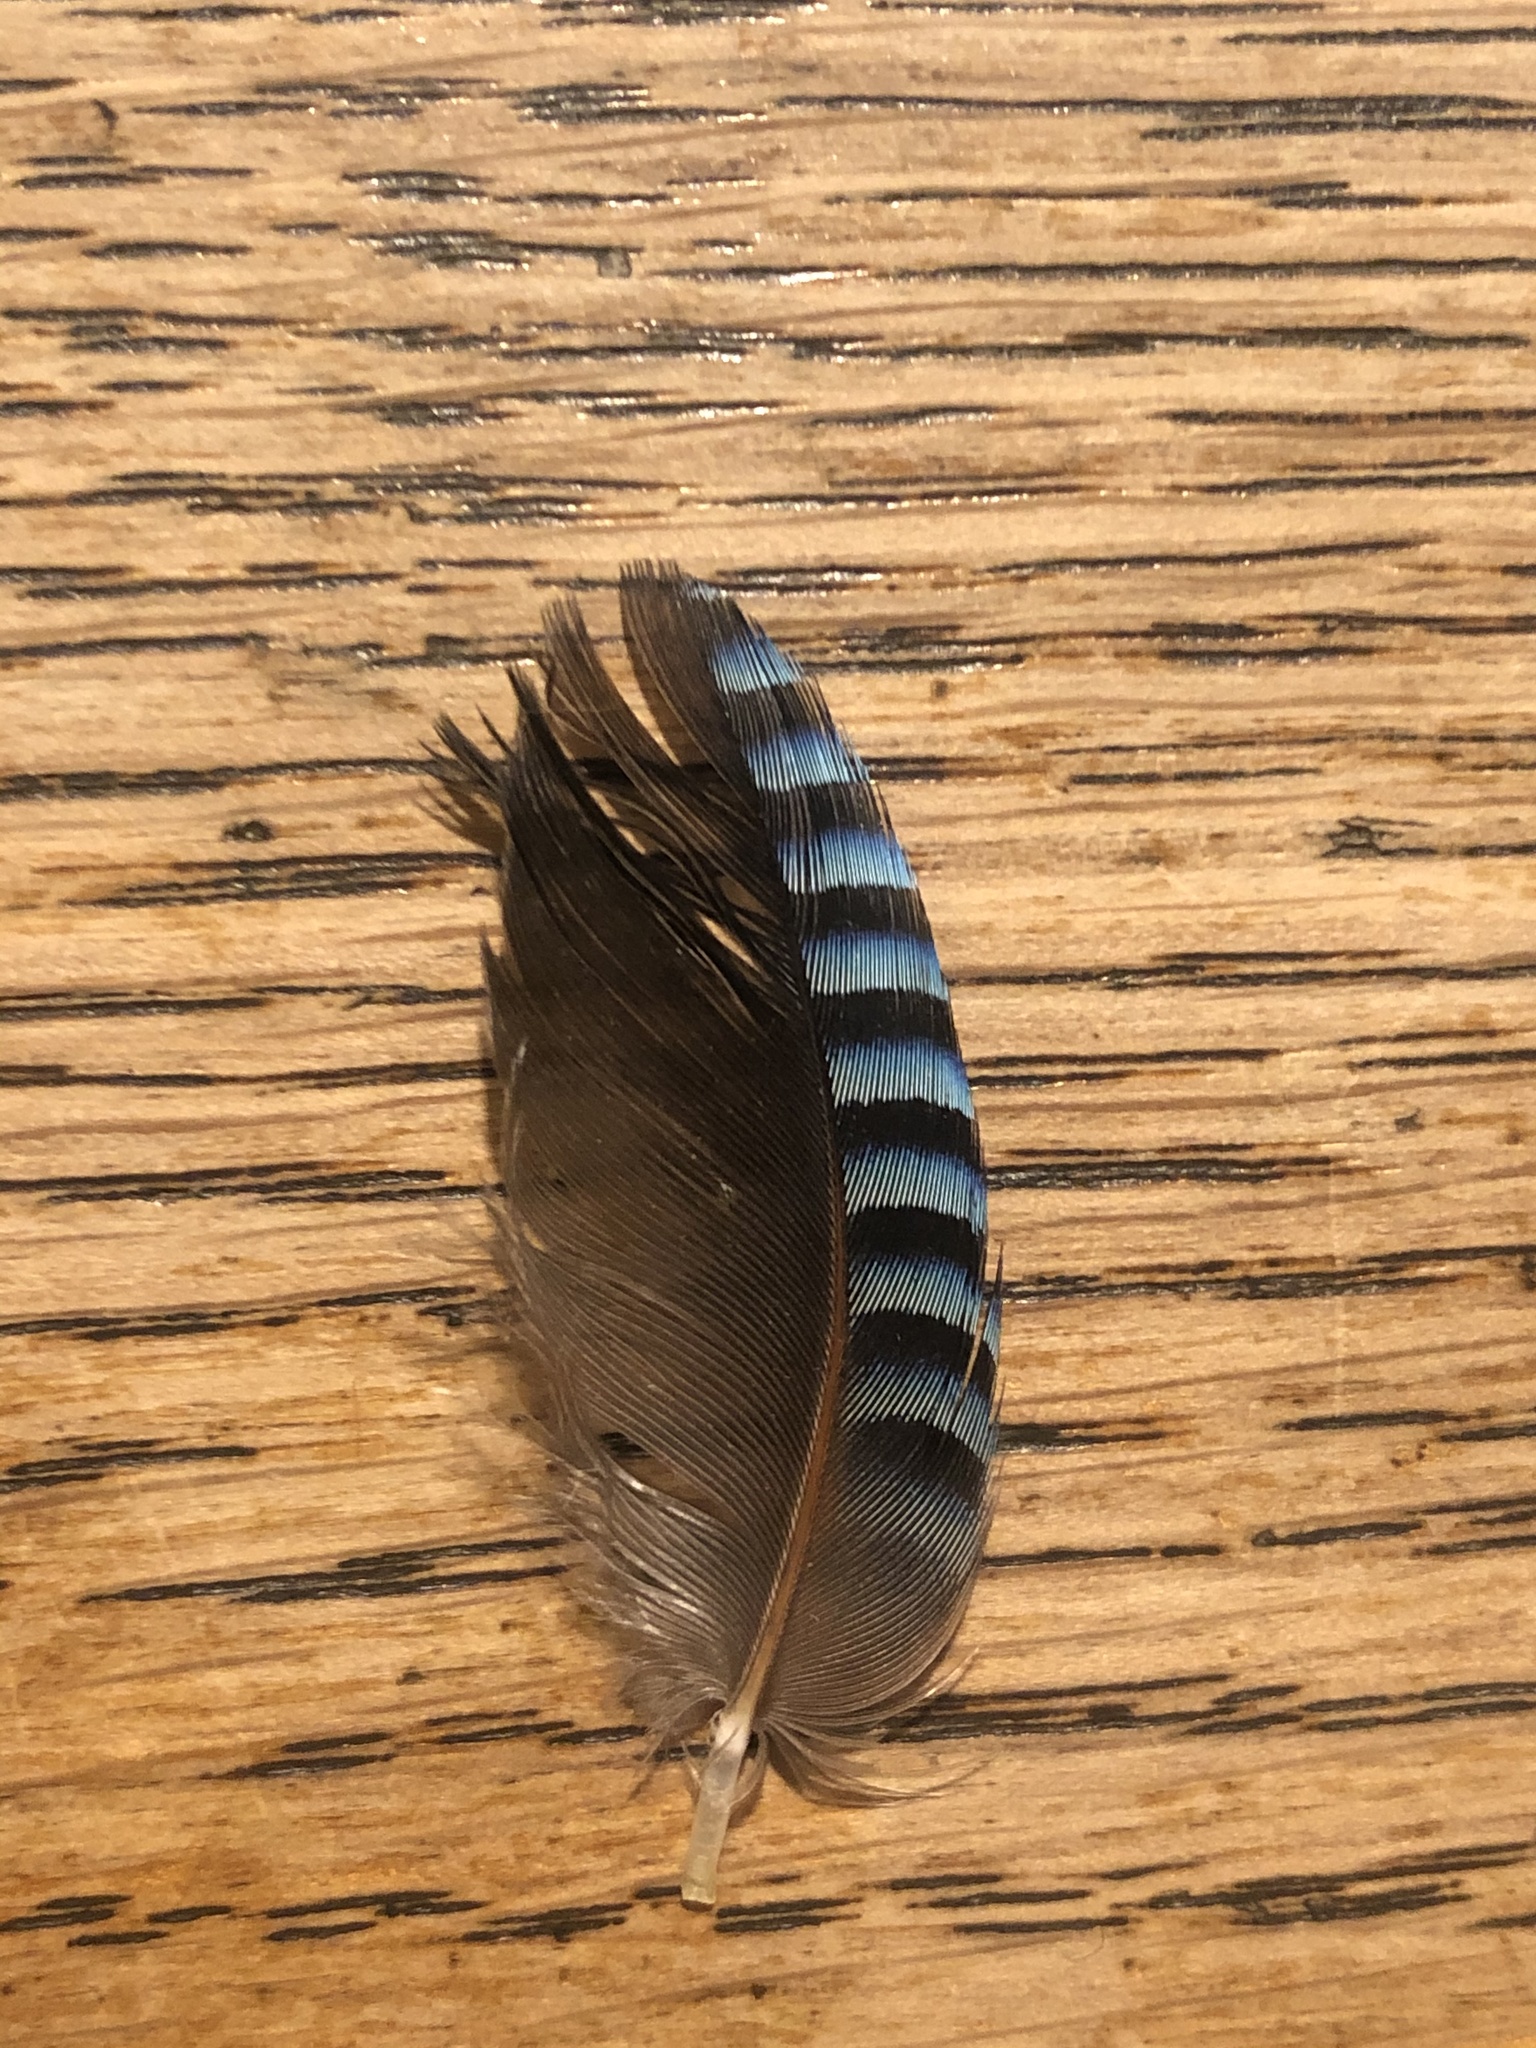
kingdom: Animalia
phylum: Chordata
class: Aves
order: Passeriformes
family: Corvidae
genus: Garrulus
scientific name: Garrulus glandarius
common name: Eurasian jay
